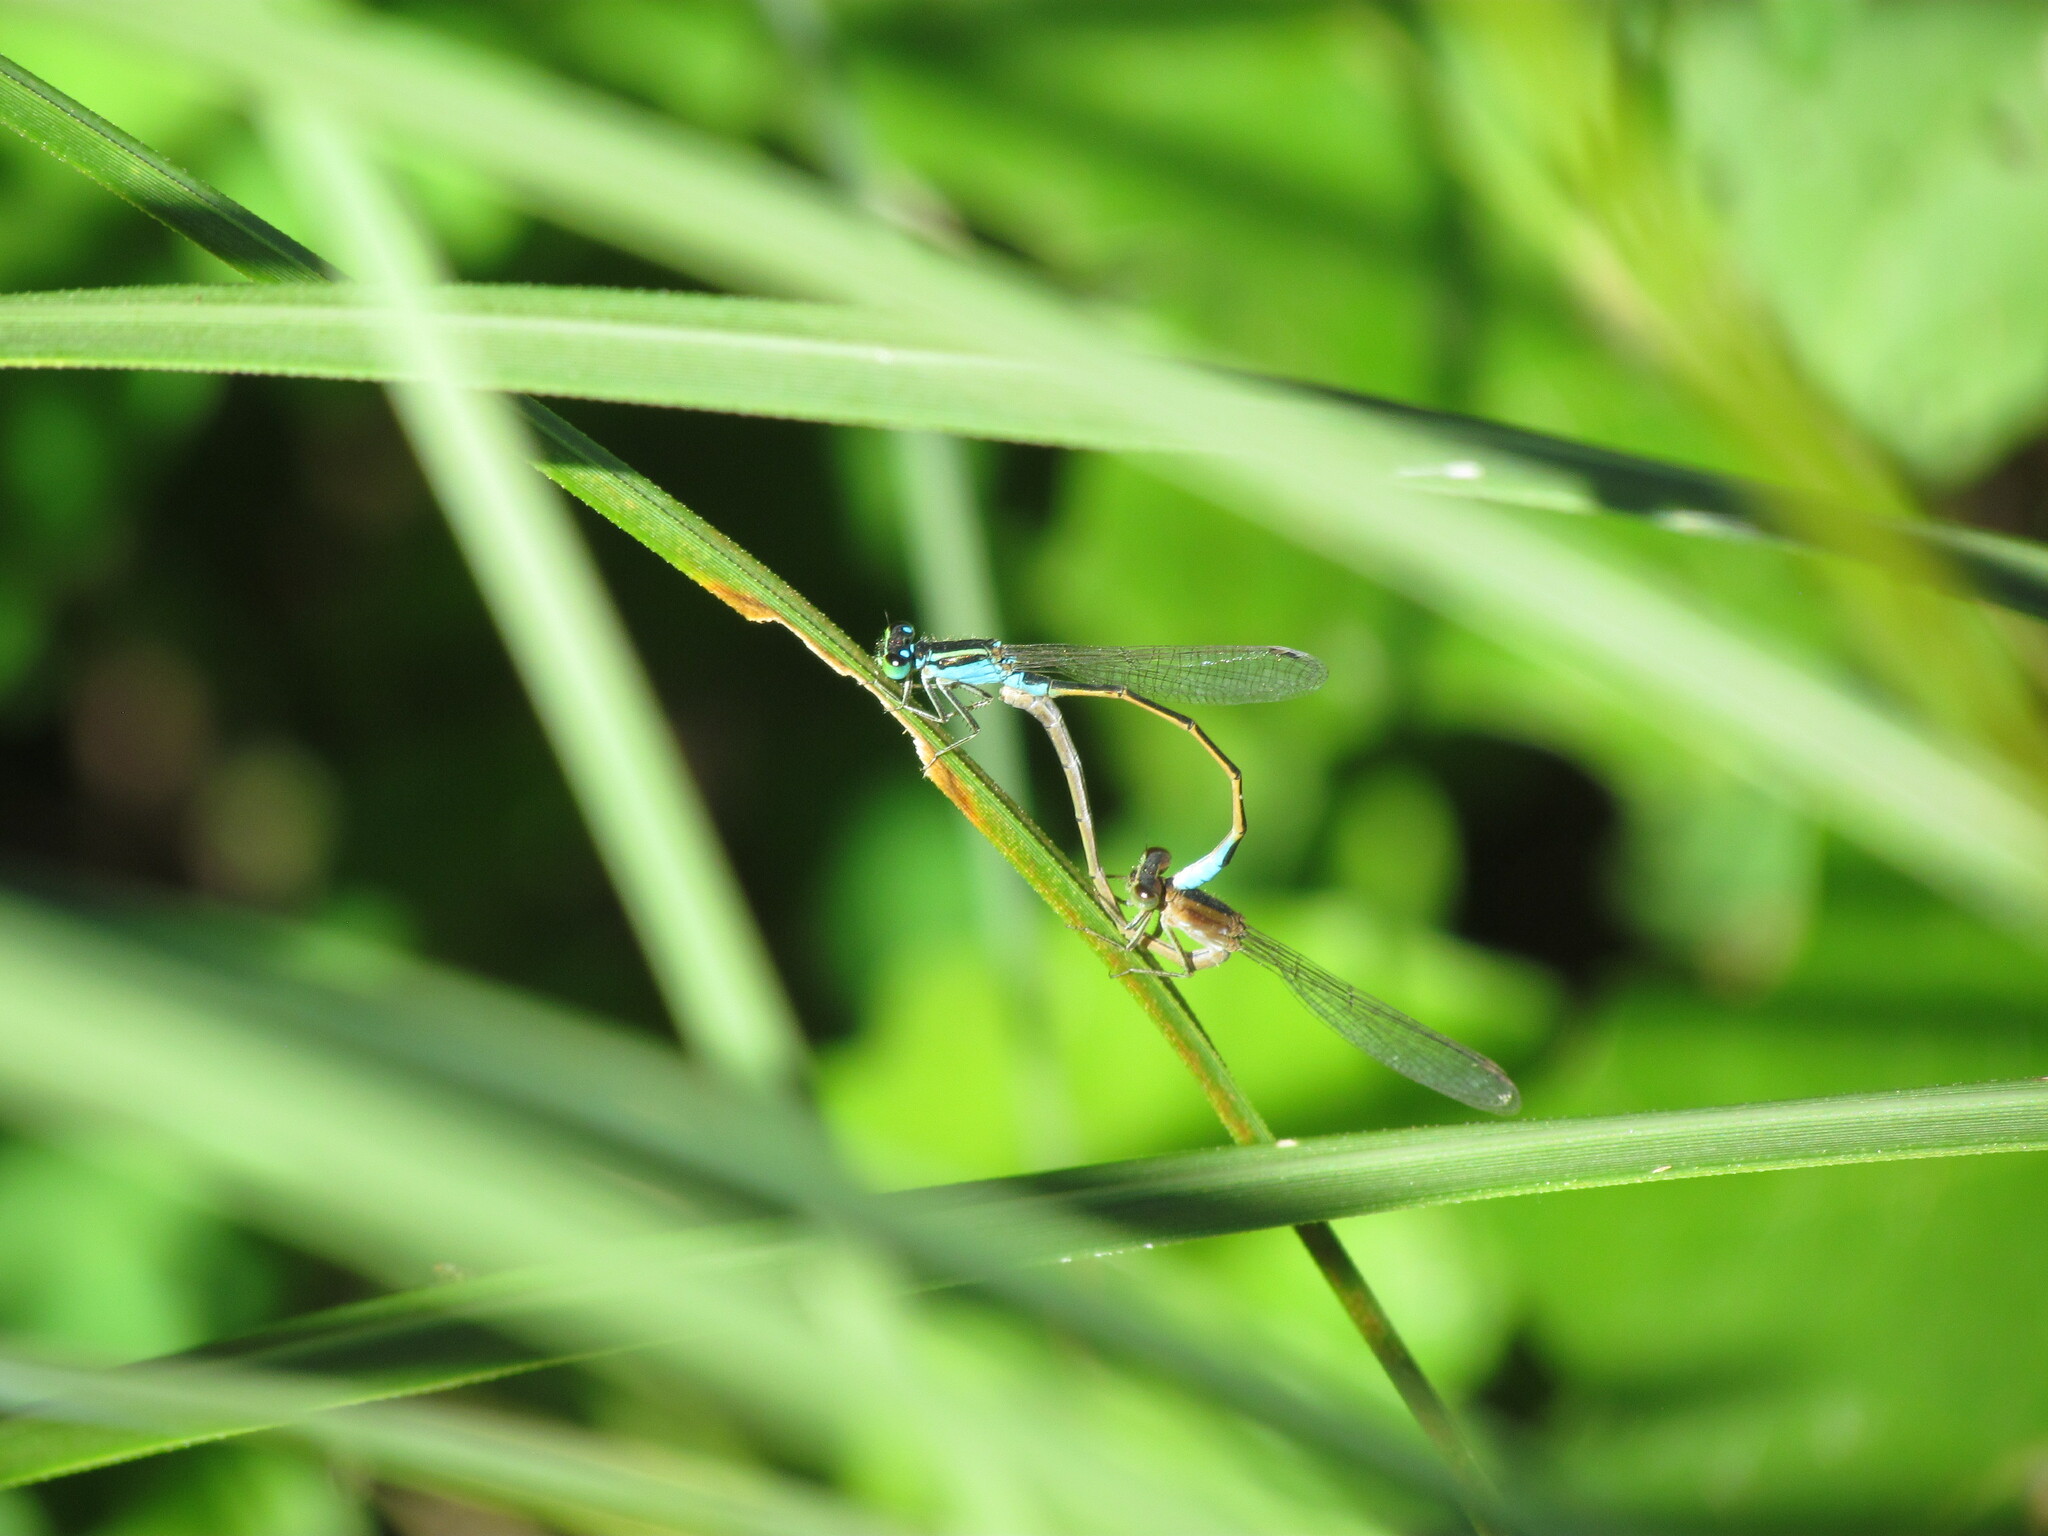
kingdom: Animalia
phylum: Arthropoda
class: Insecta
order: Odonata
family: Coenagrionidae
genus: Ischnura
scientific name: Ischnura fluviatilis
